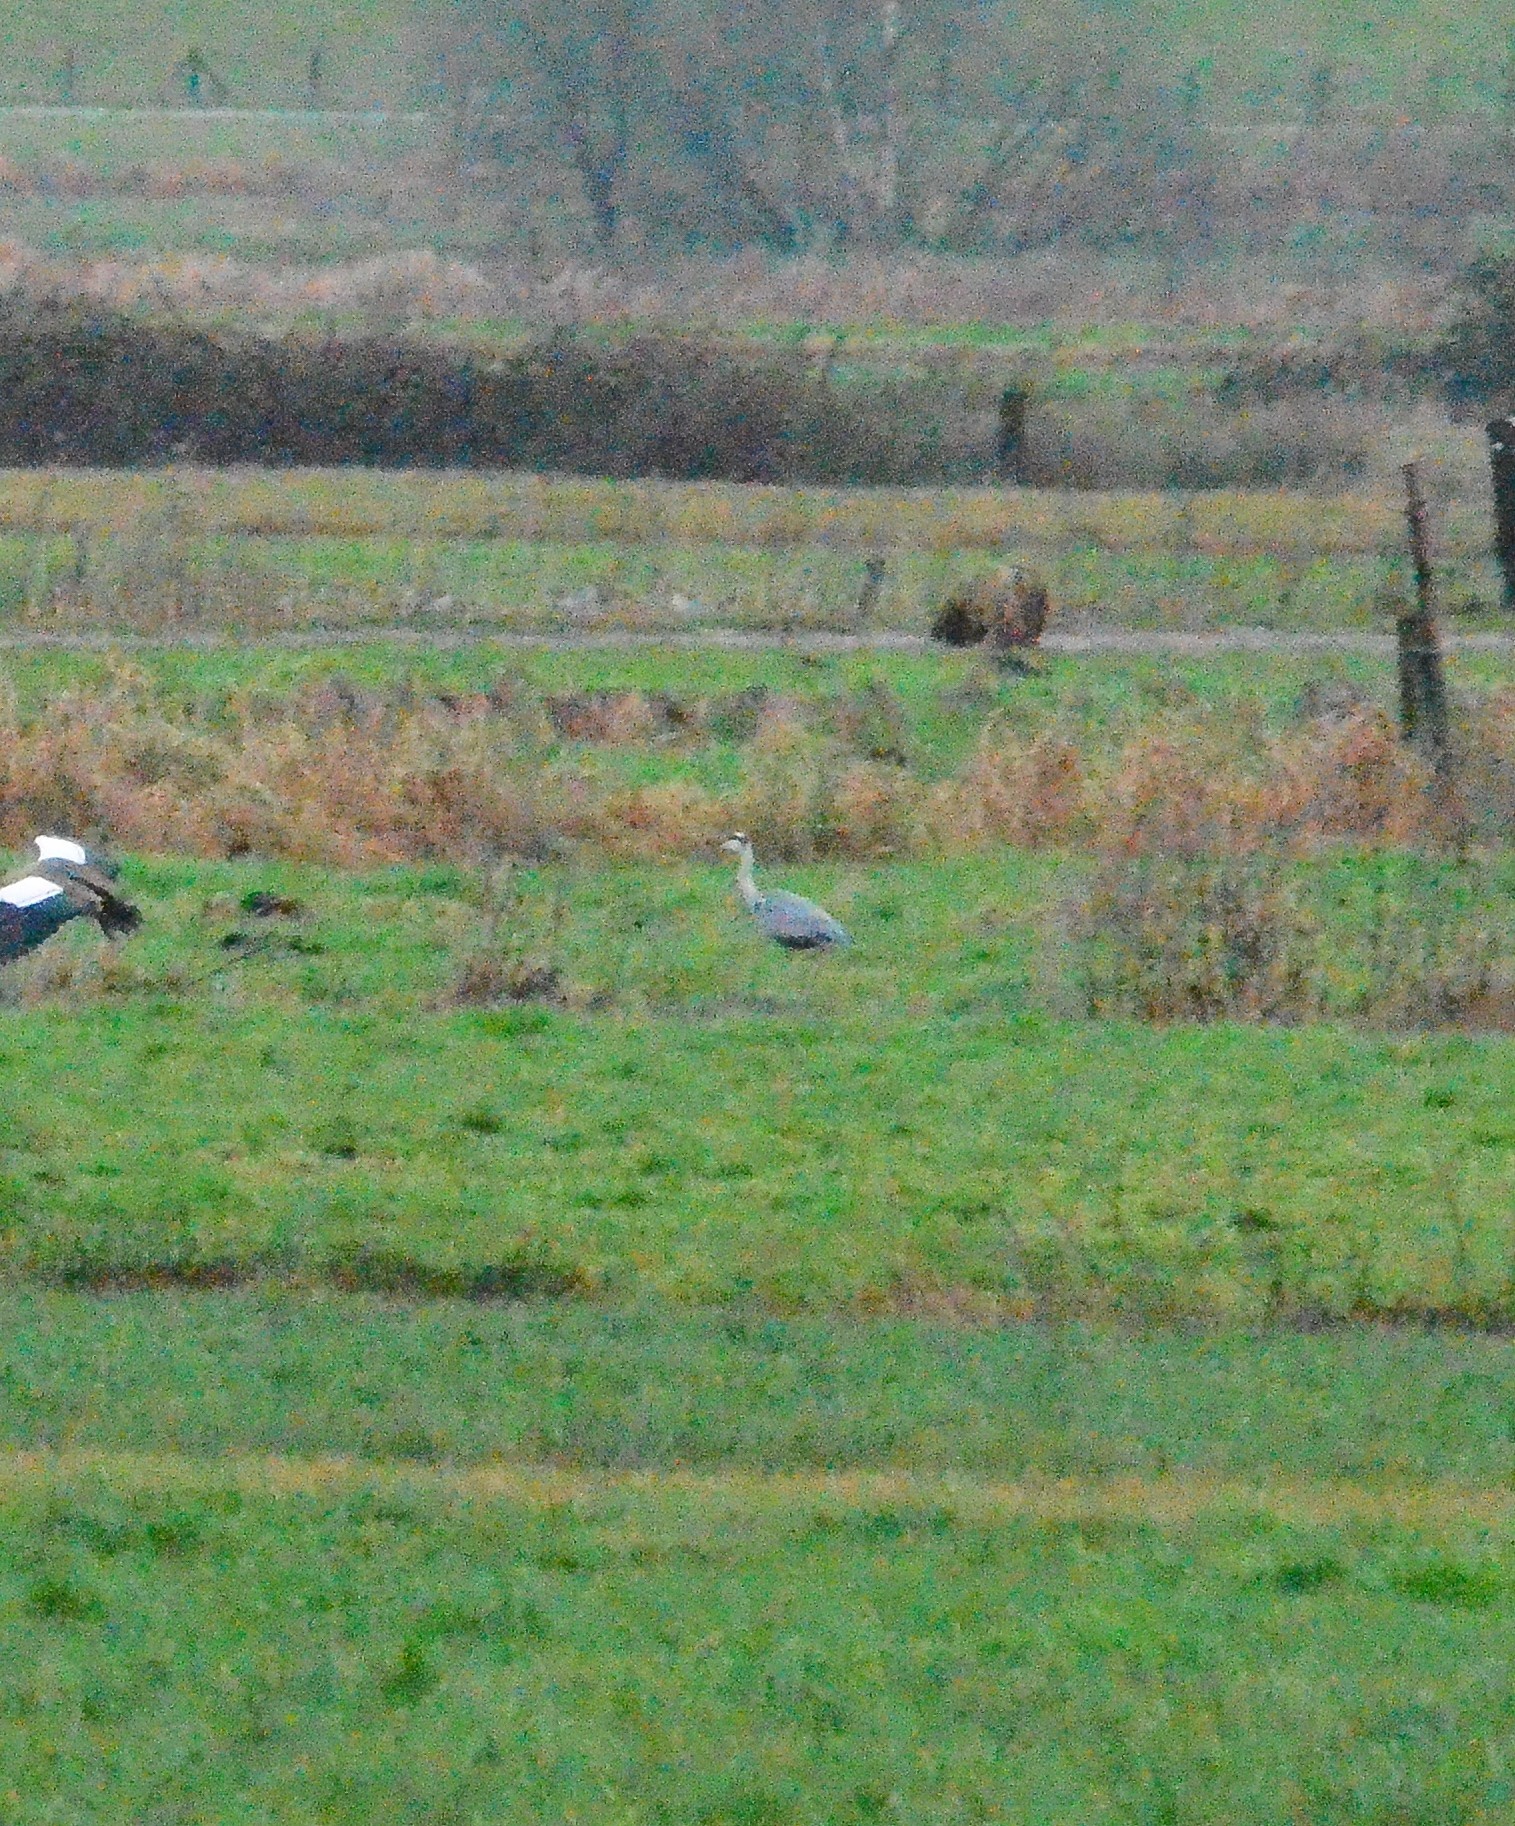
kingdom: Animalia
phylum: Chordata
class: Aves
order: Pelecaniformes
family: Ardeidae
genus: Ardea
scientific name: Ardea cinerea
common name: Grey heron
